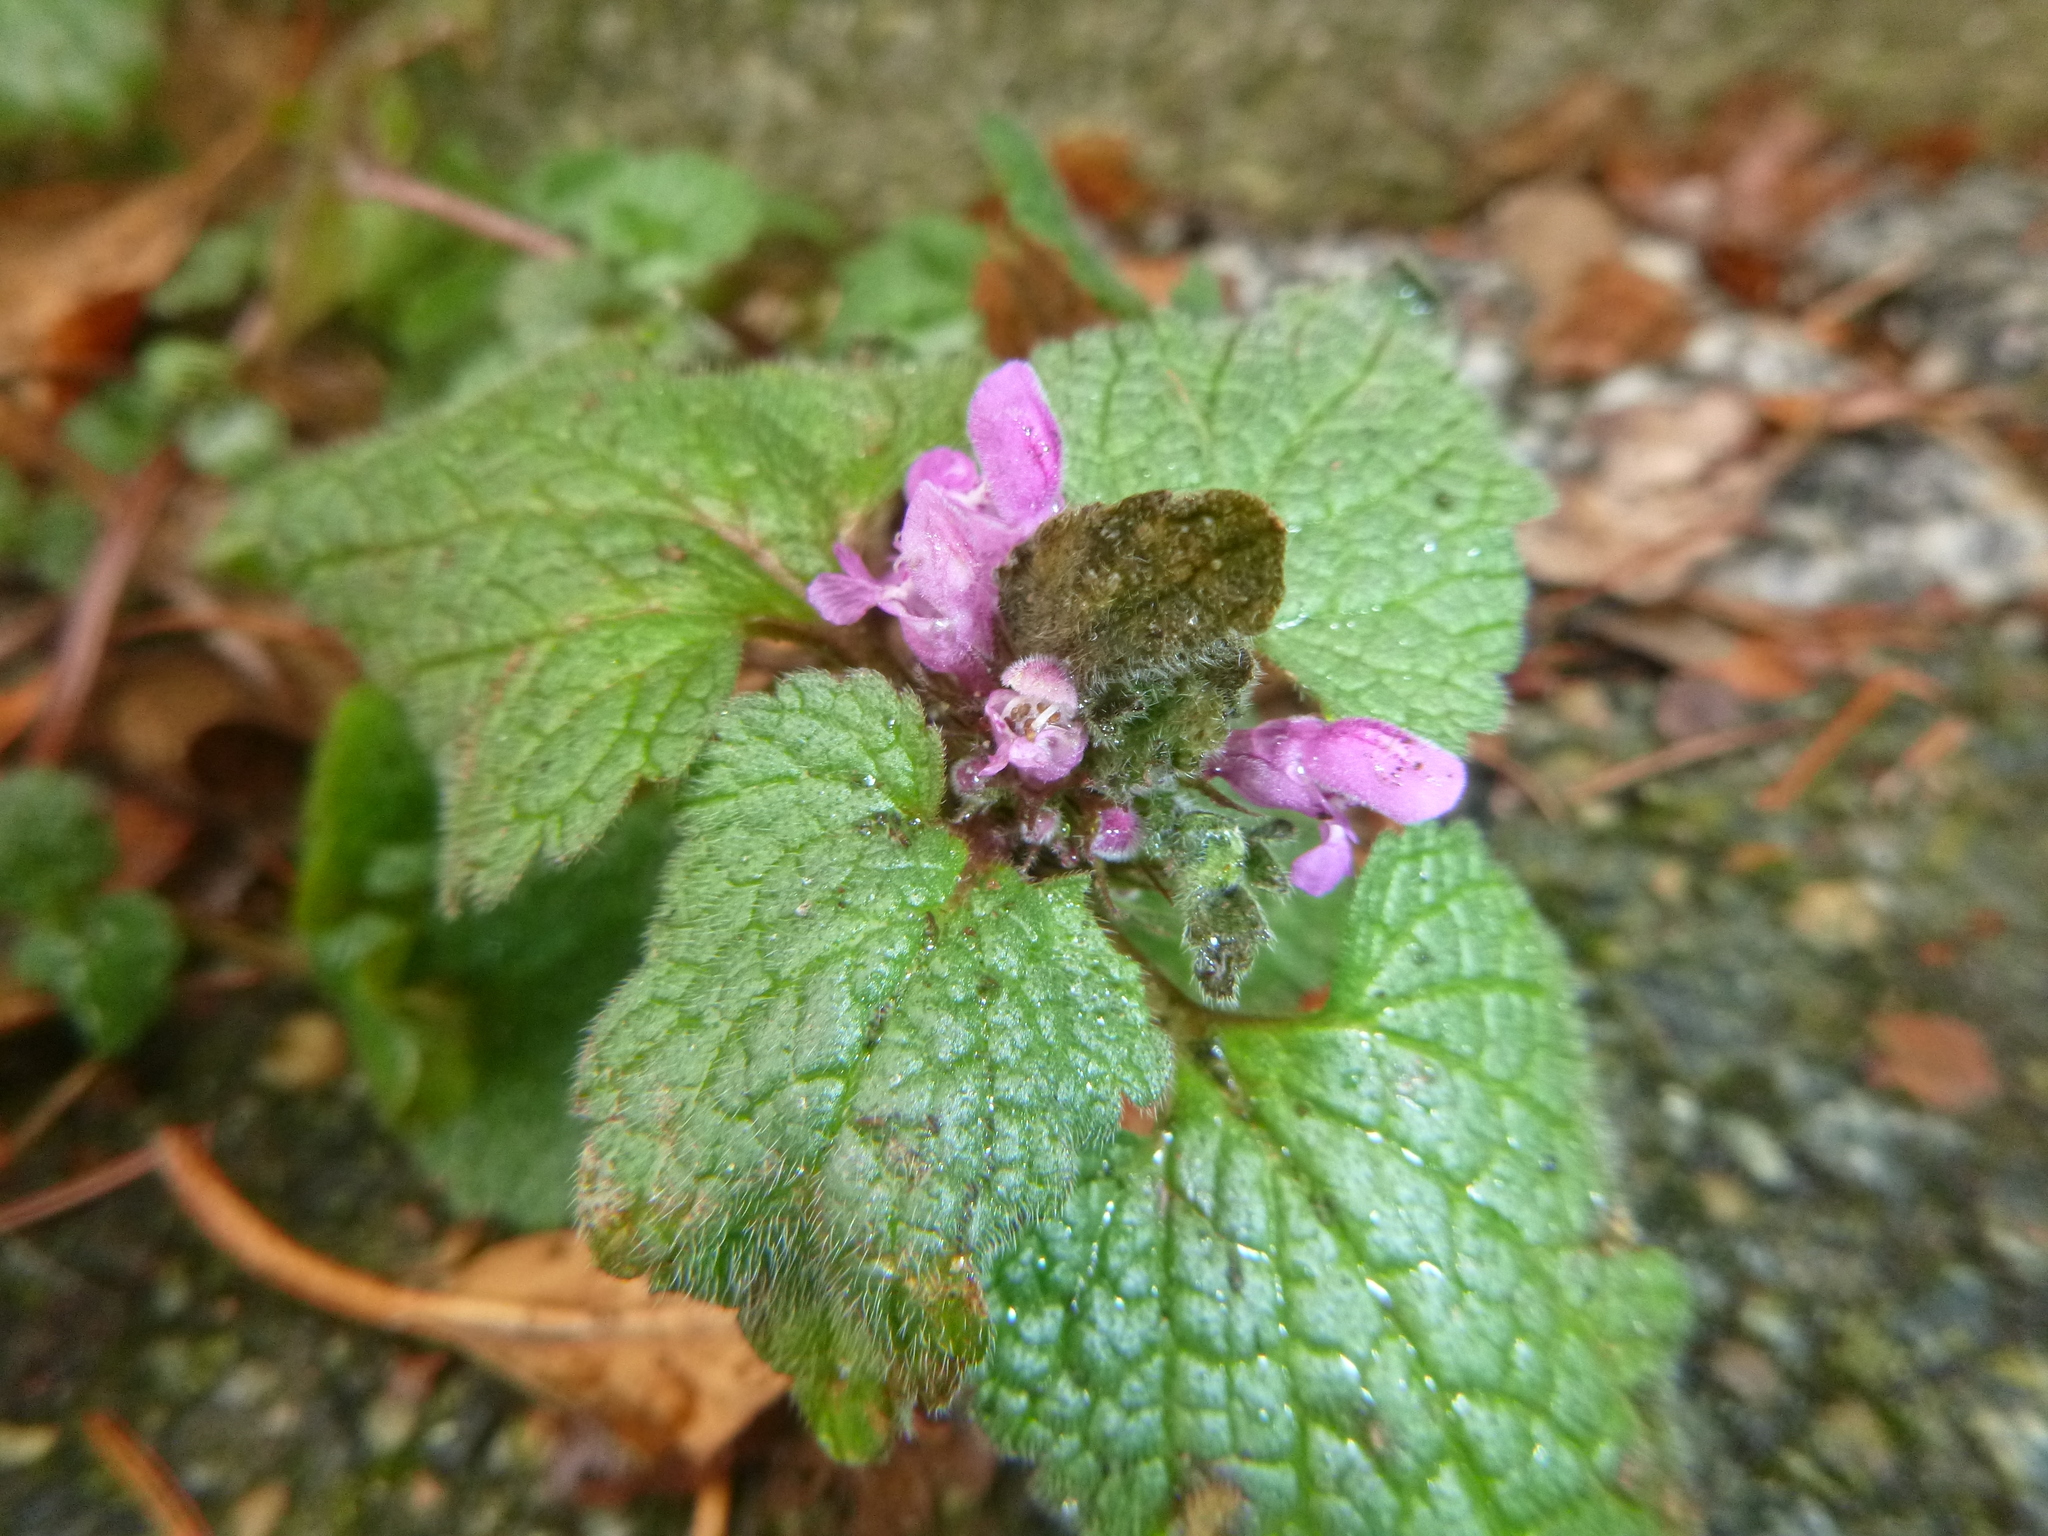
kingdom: Plantae
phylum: Tracheophyta
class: Magnoliopsida
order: Lamiales
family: Lamiaceae
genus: Lamium
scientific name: Lamium purpureum
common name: Red dead-nettle
